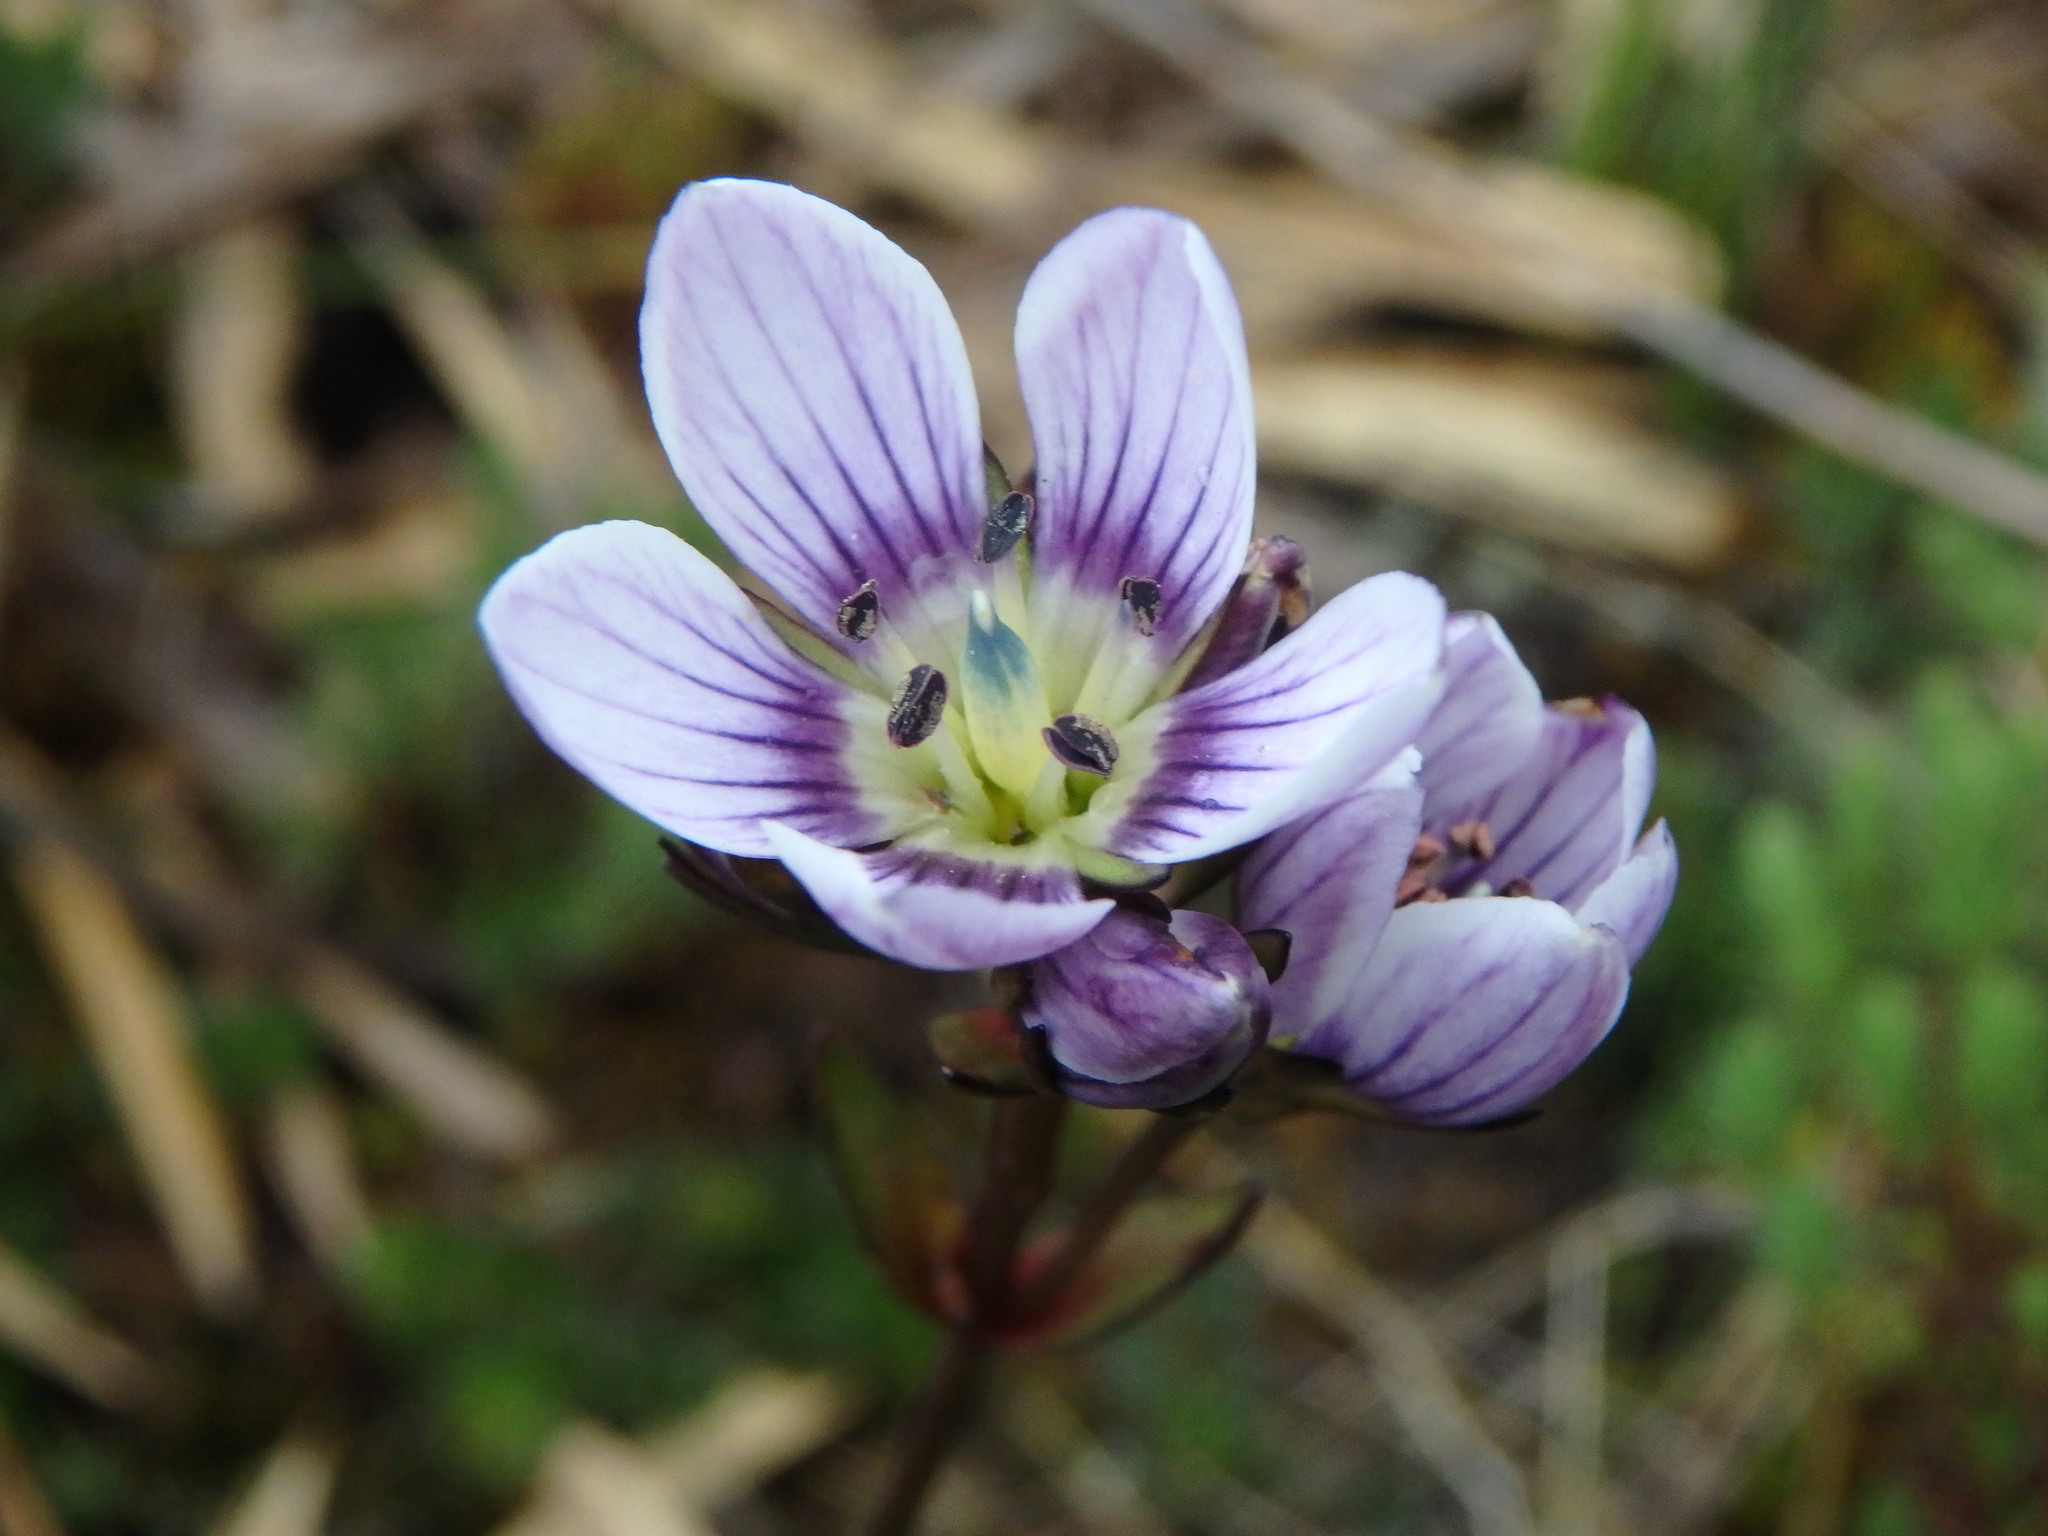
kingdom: Plantae
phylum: Tracheophyta
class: Magnoliopsida
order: Gentianales
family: Gentianaceae
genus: Gentianella
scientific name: Gentianella corymbosa
